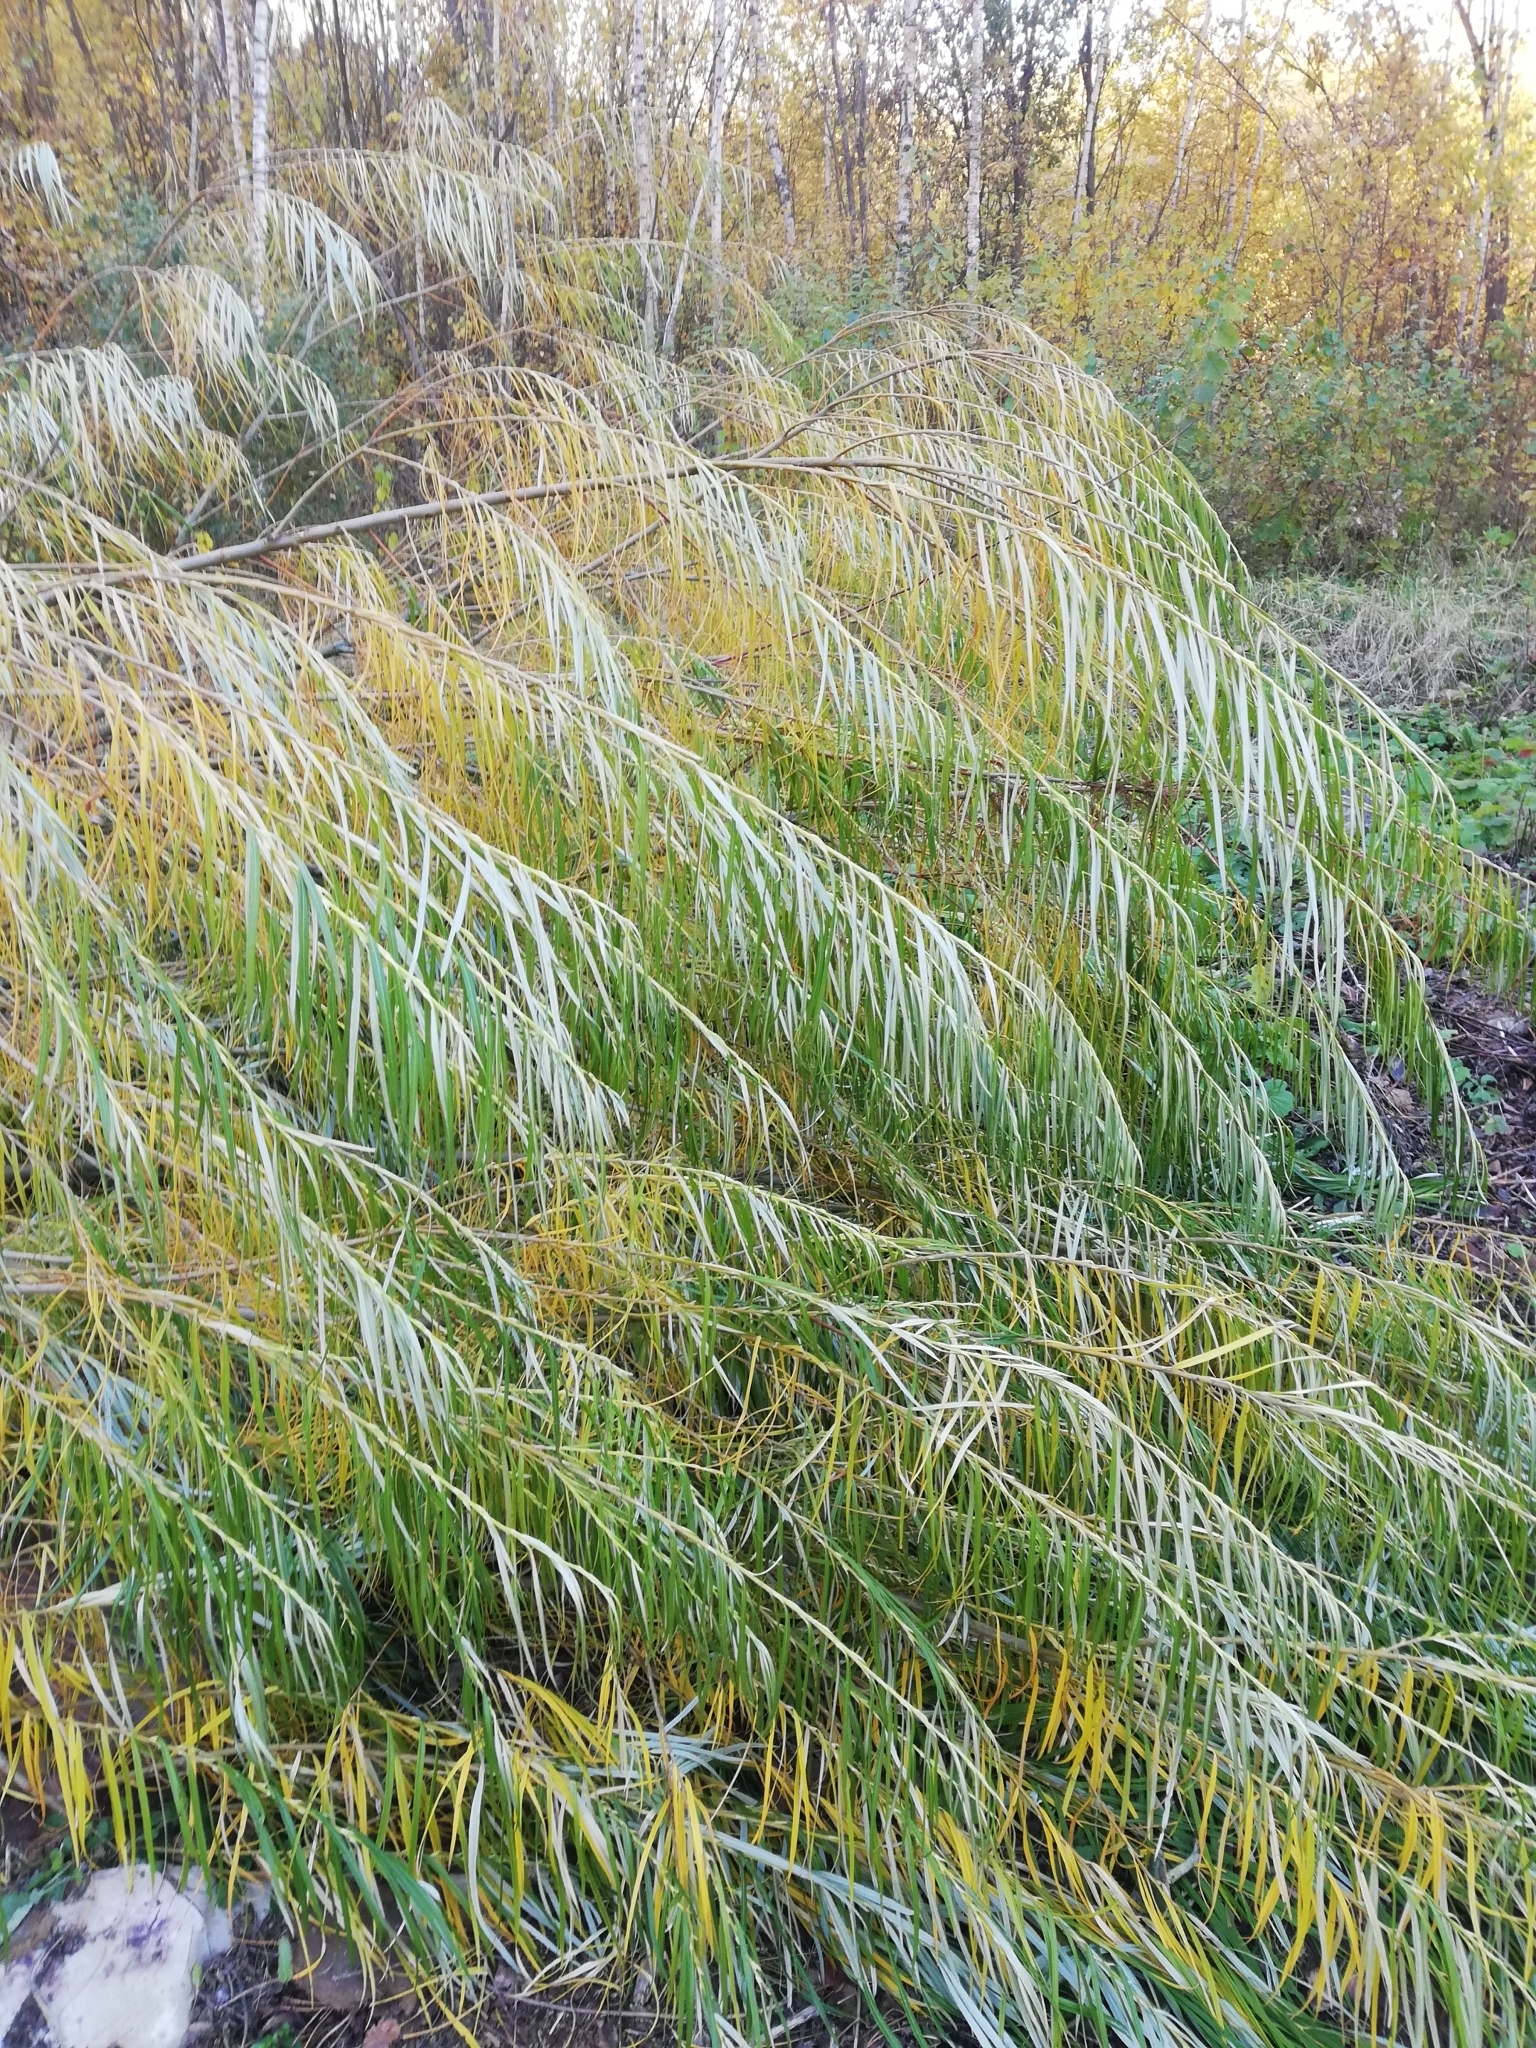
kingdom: Plantae
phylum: Tracheophyta
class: Magnoliopsida
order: Malpighiales
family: Salicaceae
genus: Salix
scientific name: Salix viminalis
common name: Osier
